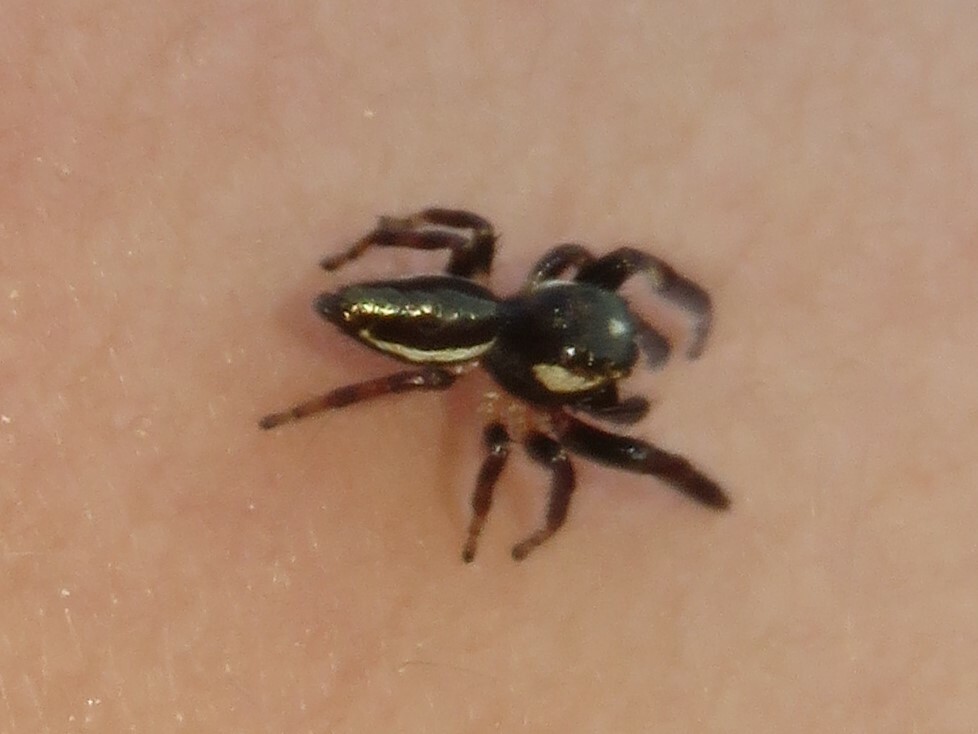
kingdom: Animalia
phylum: Arthropoda
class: Arachnida
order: Araneae
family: Salticidae
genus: Eris
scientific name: Eris militaris
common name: Bronze jumper
